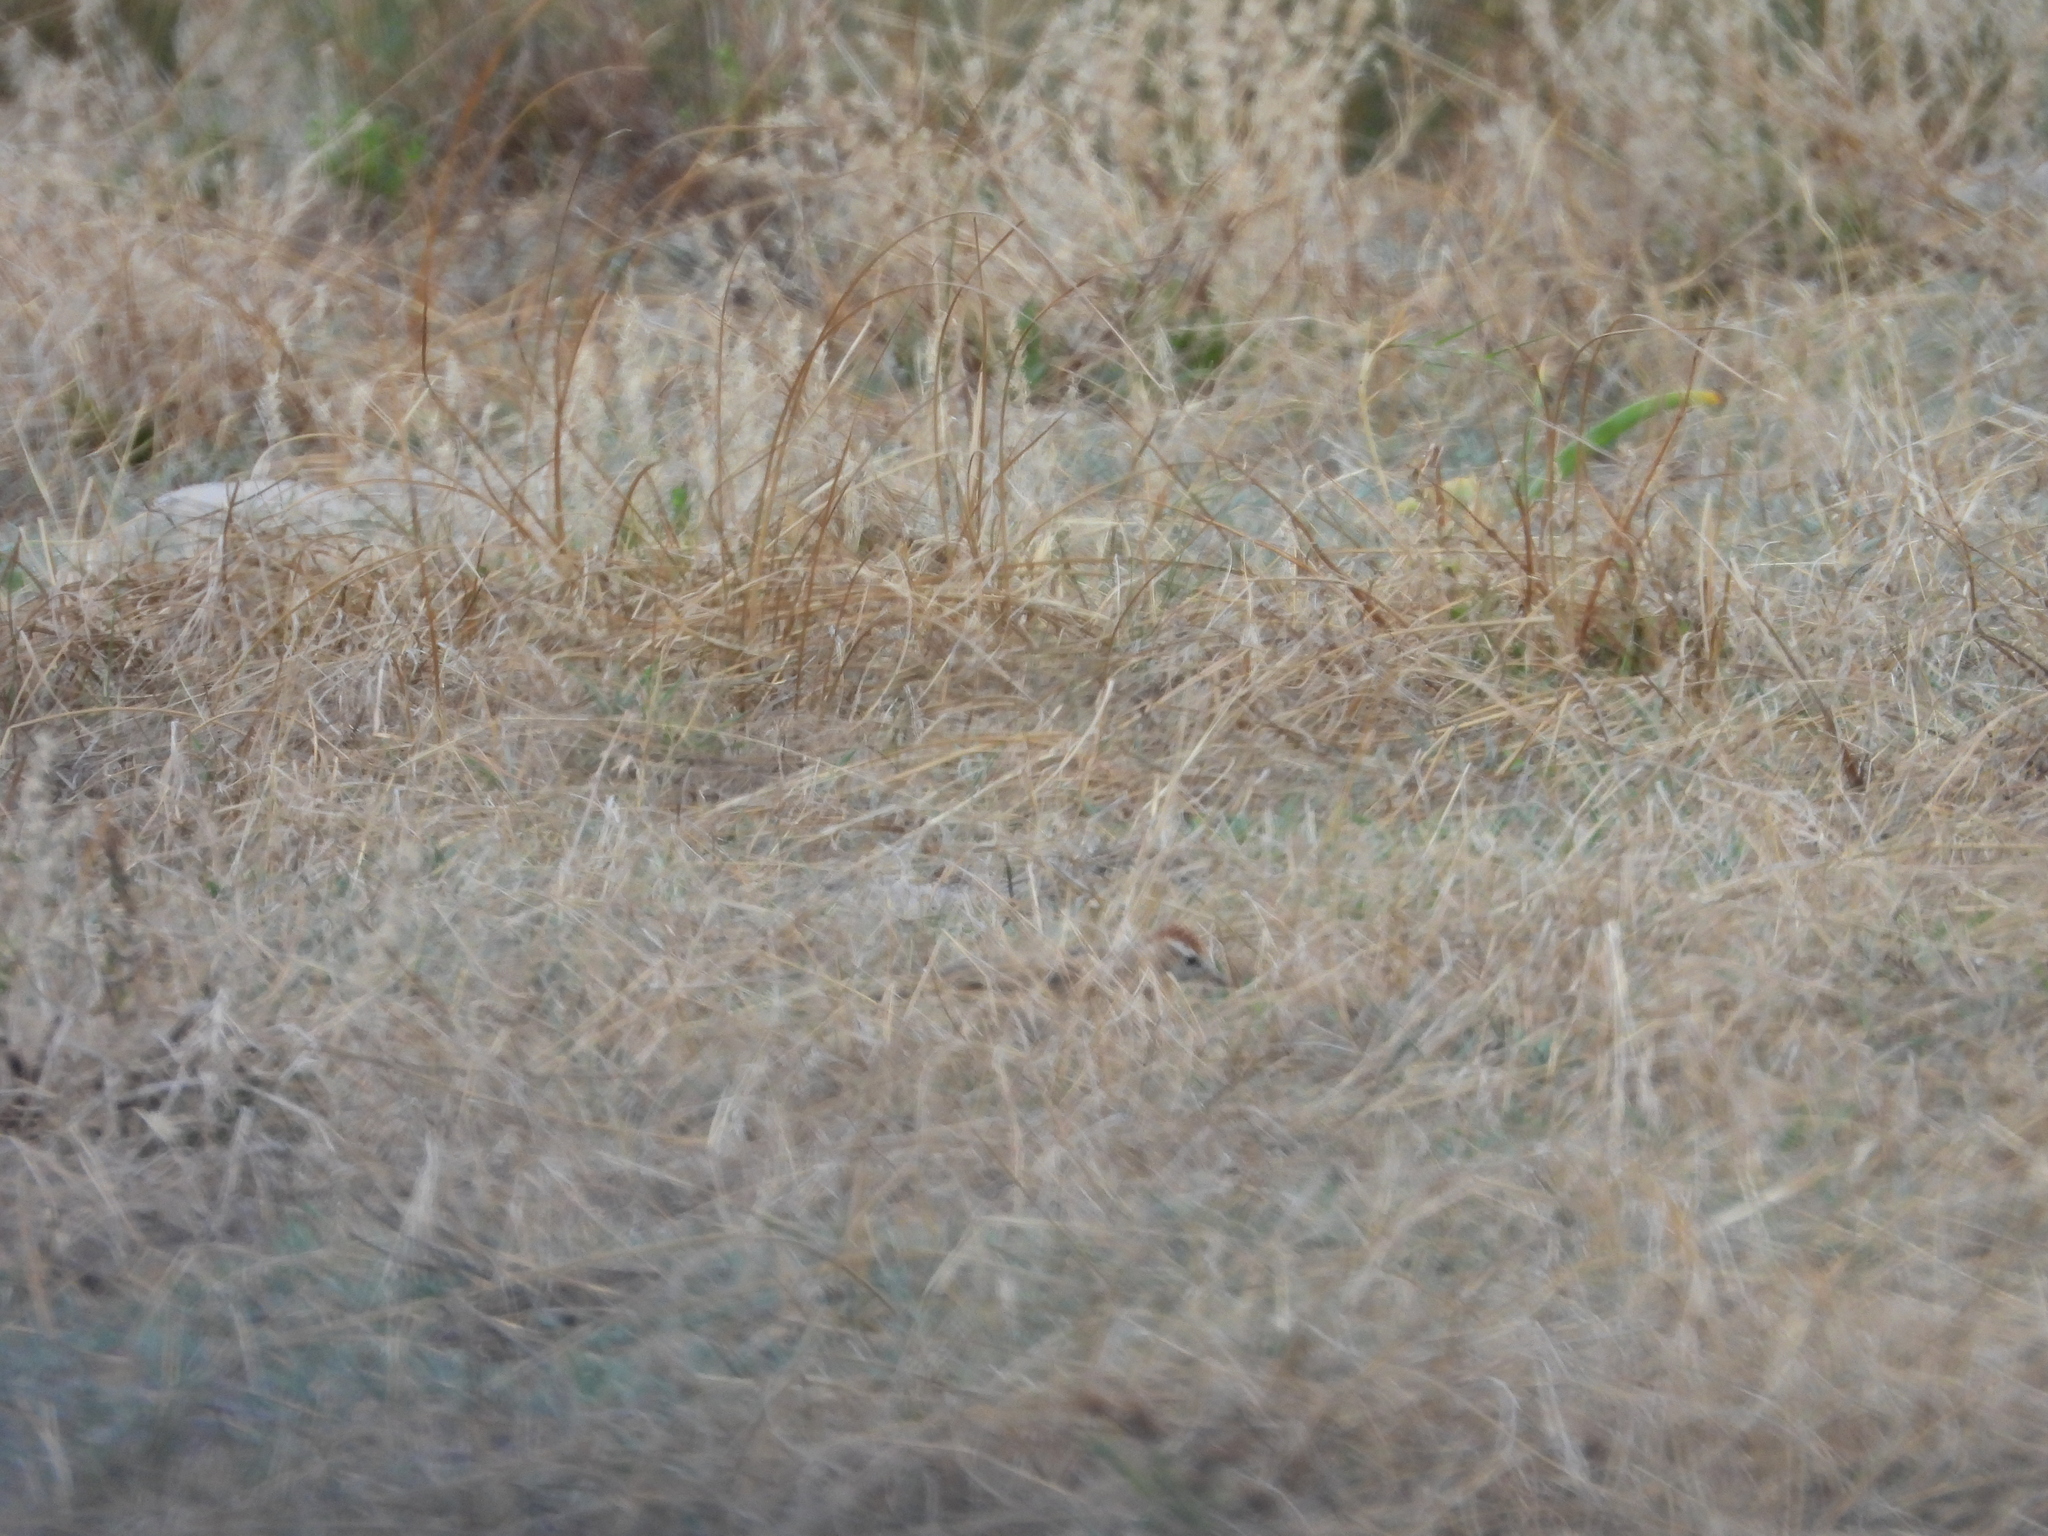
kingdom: Animalia
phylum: Chordata
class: Aves
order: Passeriformes
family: Alaudidae
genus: Calandrella
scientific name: Calandrella cinerea
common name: Red-capped lark
